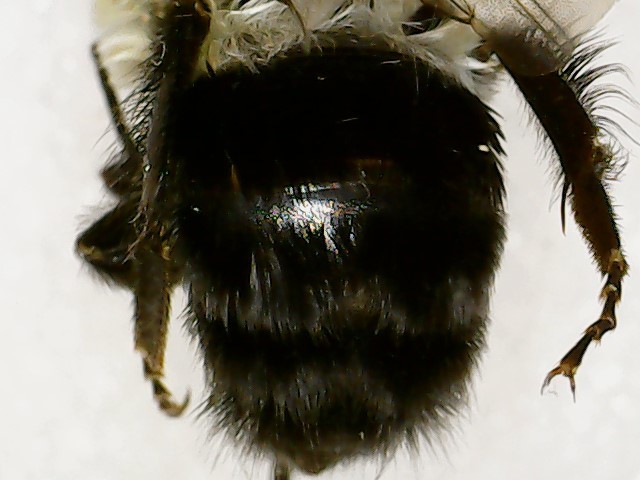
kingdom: Animalia
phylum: Arthropoda
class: Insecta
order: Hymenoptera
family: Apidae
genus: Bombus
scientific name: Bombus impatiens
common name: Common eastern bumble bee
